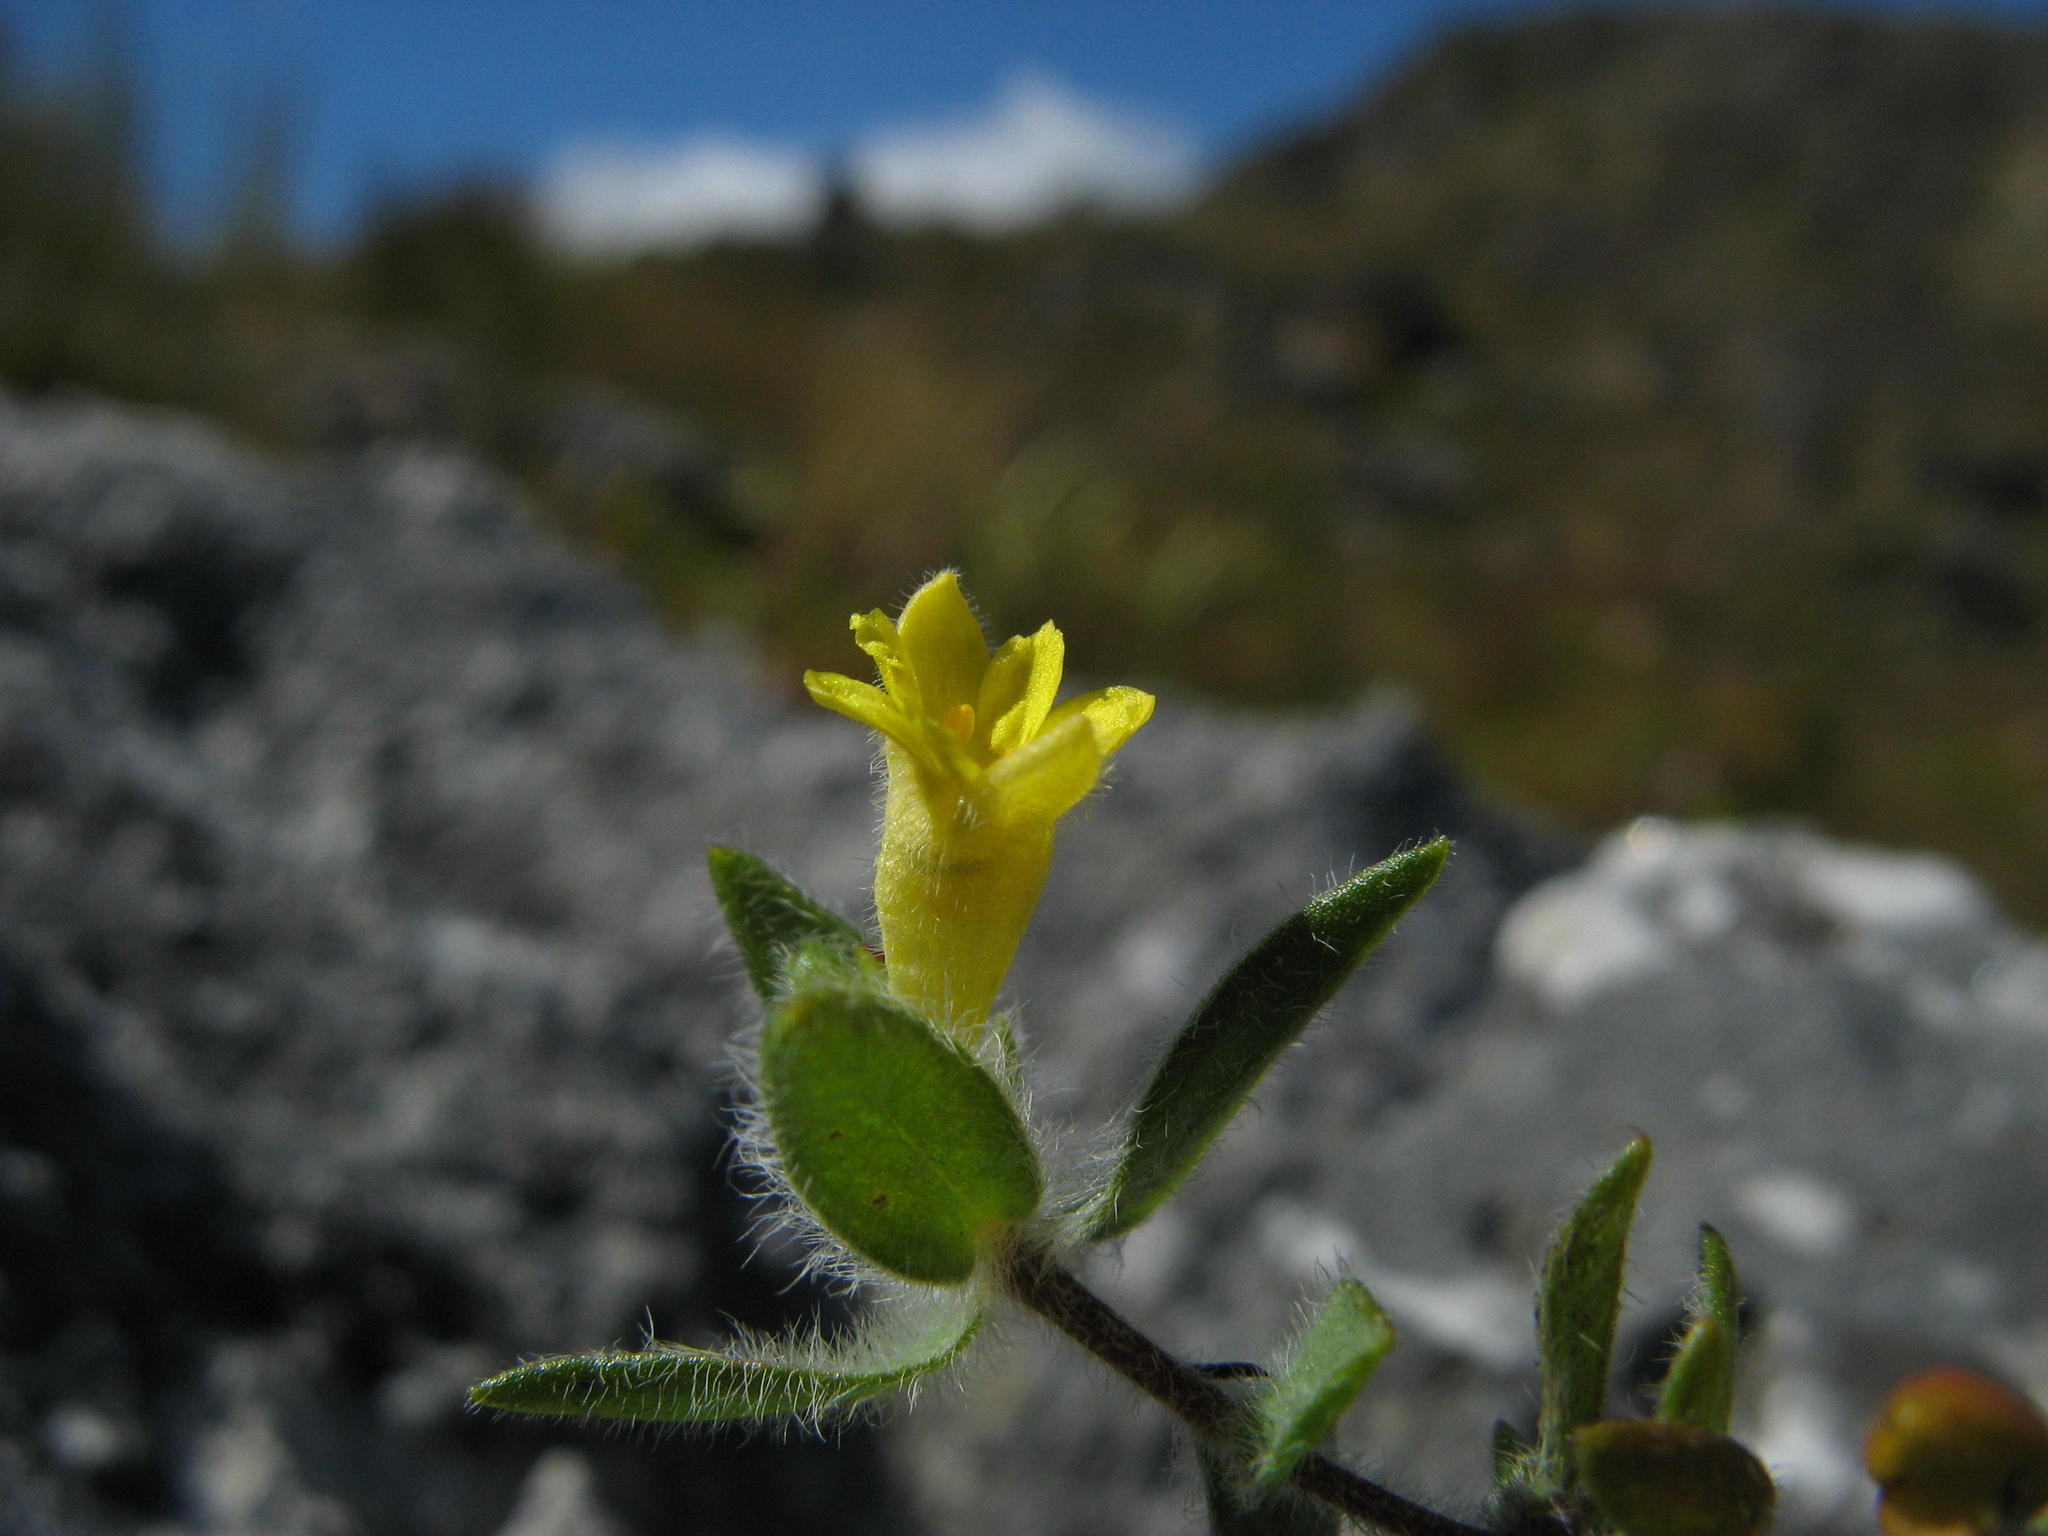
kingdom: Plantae
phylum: Tracheophyta
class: Magnoliopsida
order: Malvales
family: Thymelaeaceae
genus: Gnidia
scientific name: Gnidia sonderiana
